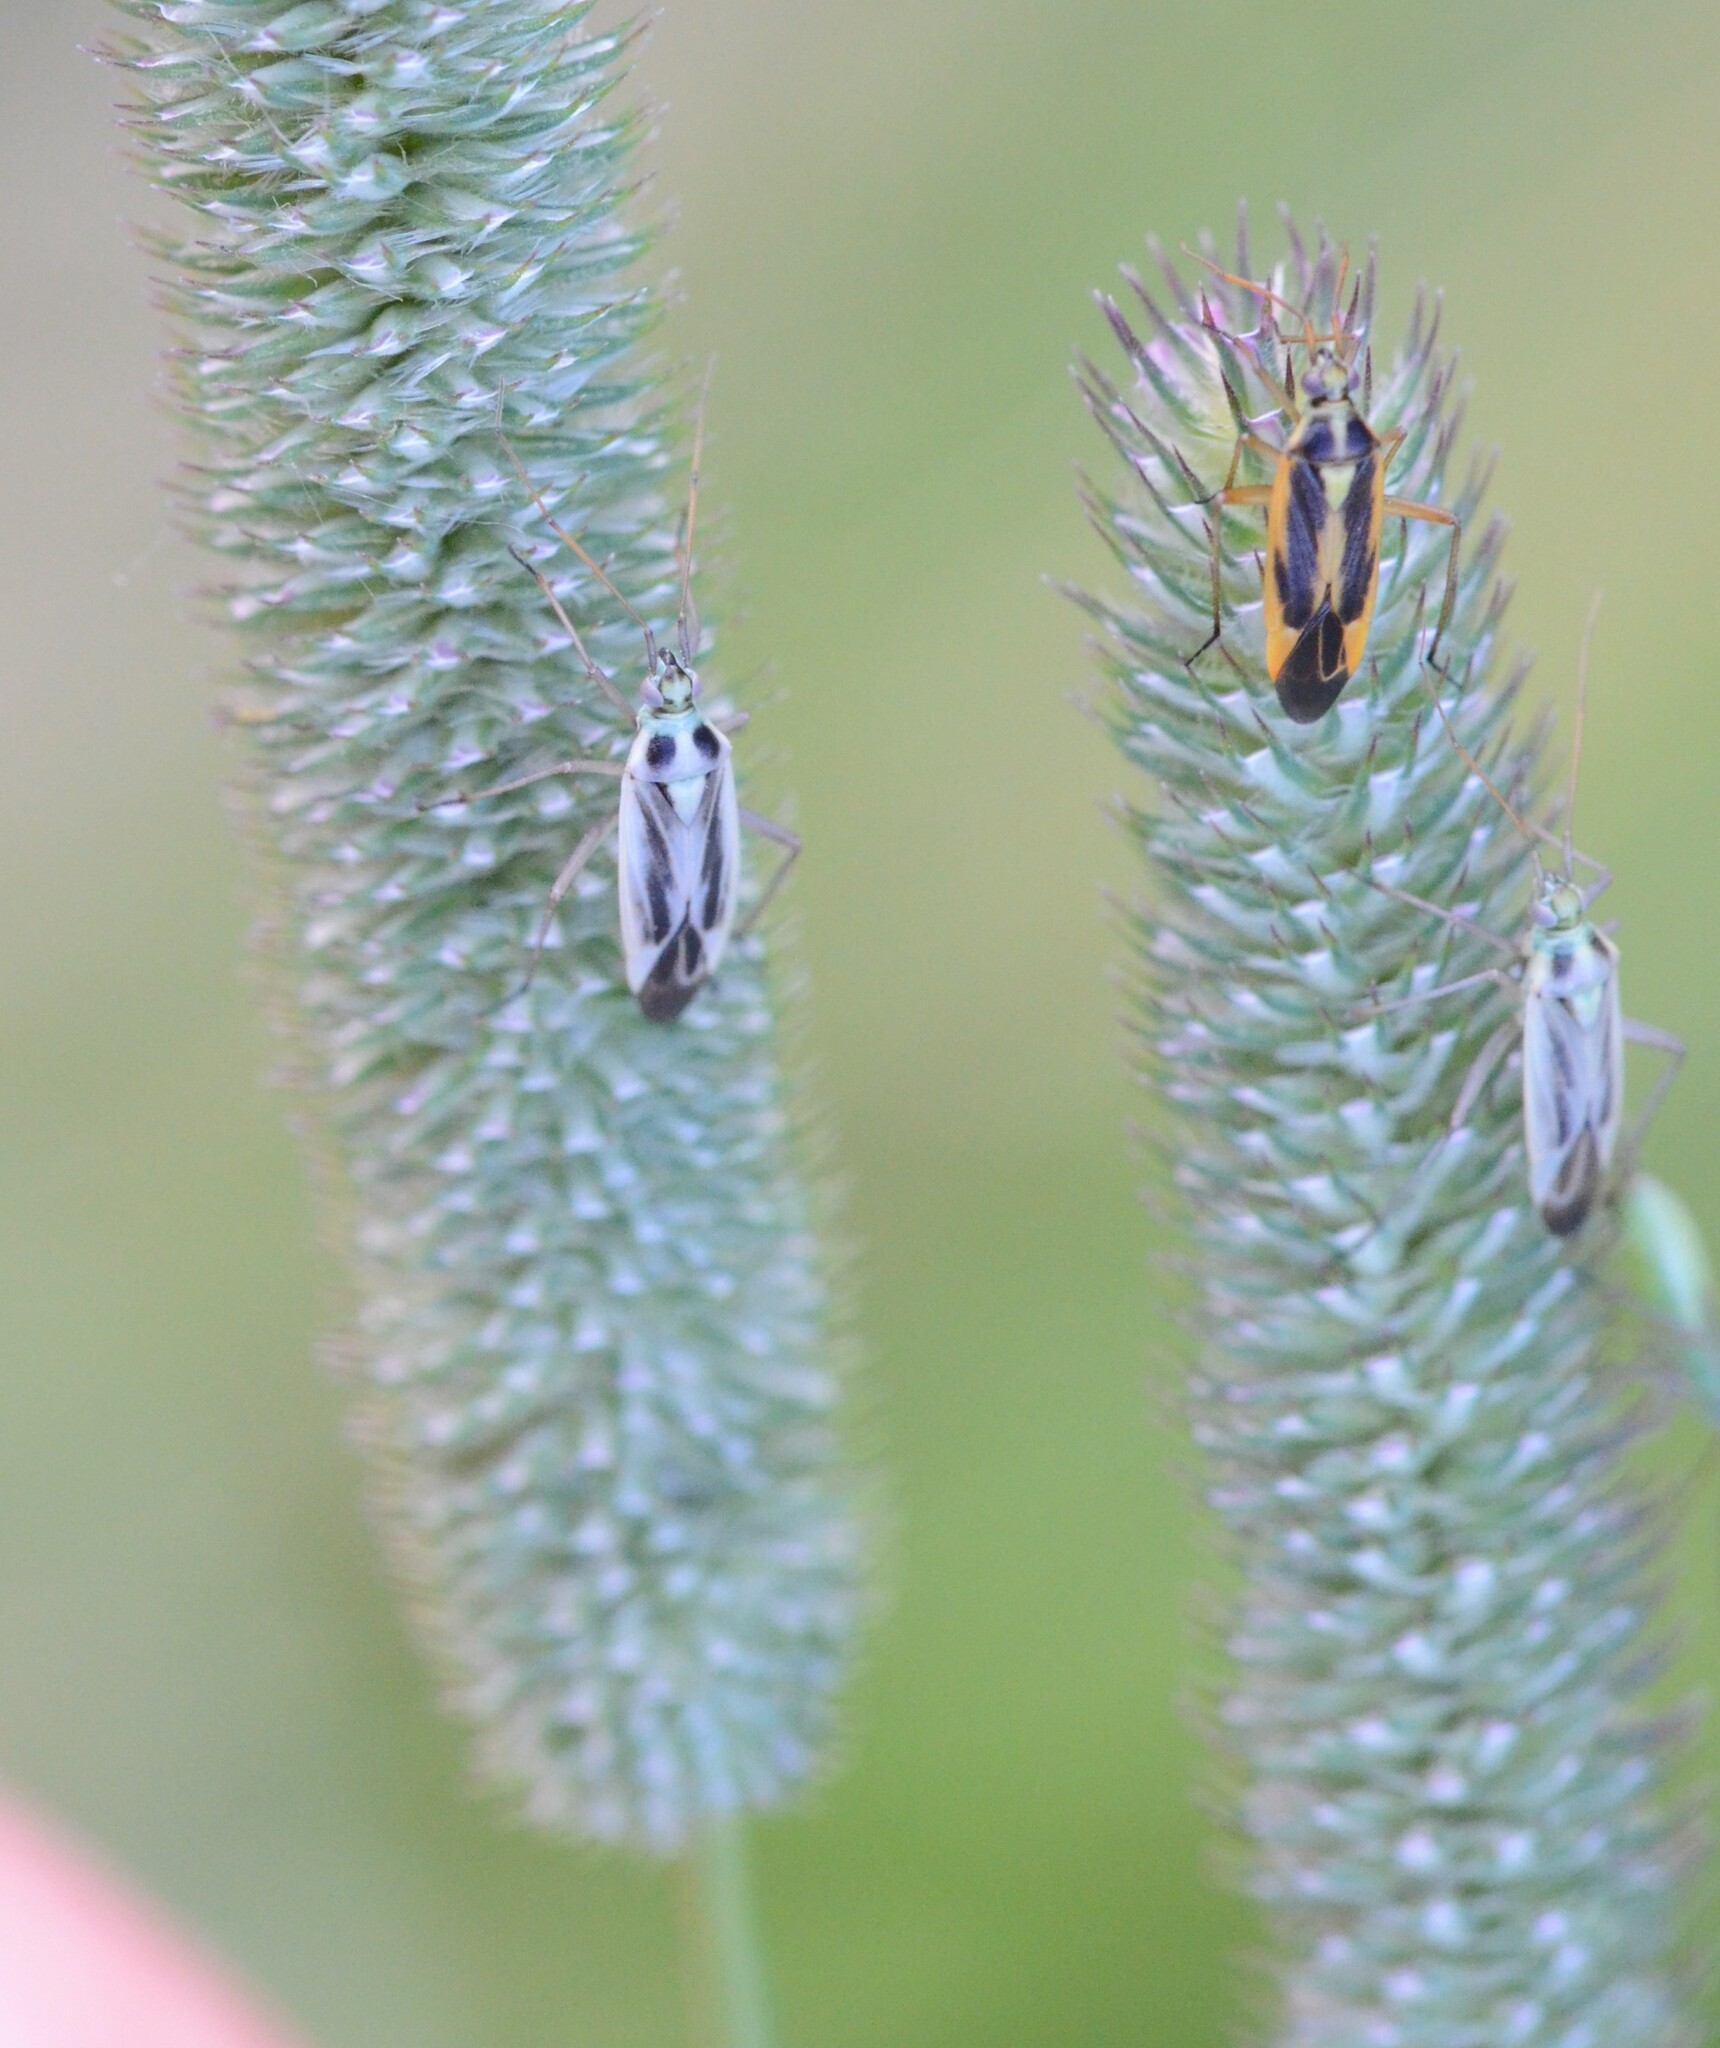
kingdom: Animalia
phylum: Arthropoda
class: Insecta
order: Hemiptera
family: Miridae
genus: Stenotus
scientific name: Stenotus binotatus
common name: Plant bug
